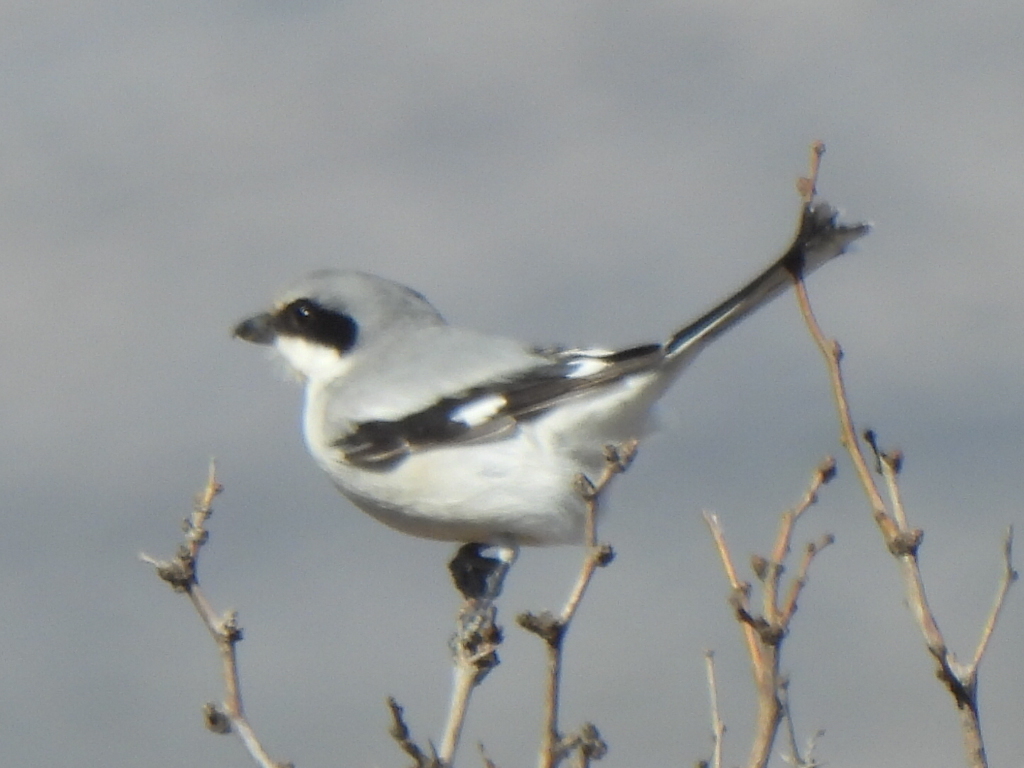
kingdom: Animalia
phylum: Chordata
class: Aves
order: Passeriformes
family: Laniidae
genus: Lanius
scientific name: Lanius ludovicianus
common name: Loggerhead shrike
